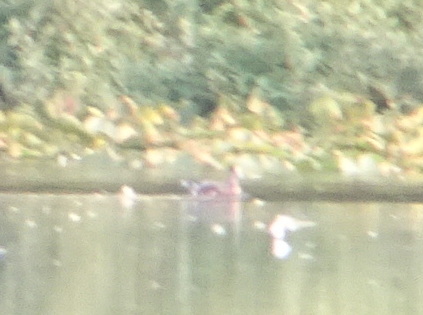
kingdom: Animalia
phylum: Chordata
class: Aves
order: Anseriformes
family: Anatidae
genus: Mareca
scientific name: Mareca americana
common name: American wigeon
